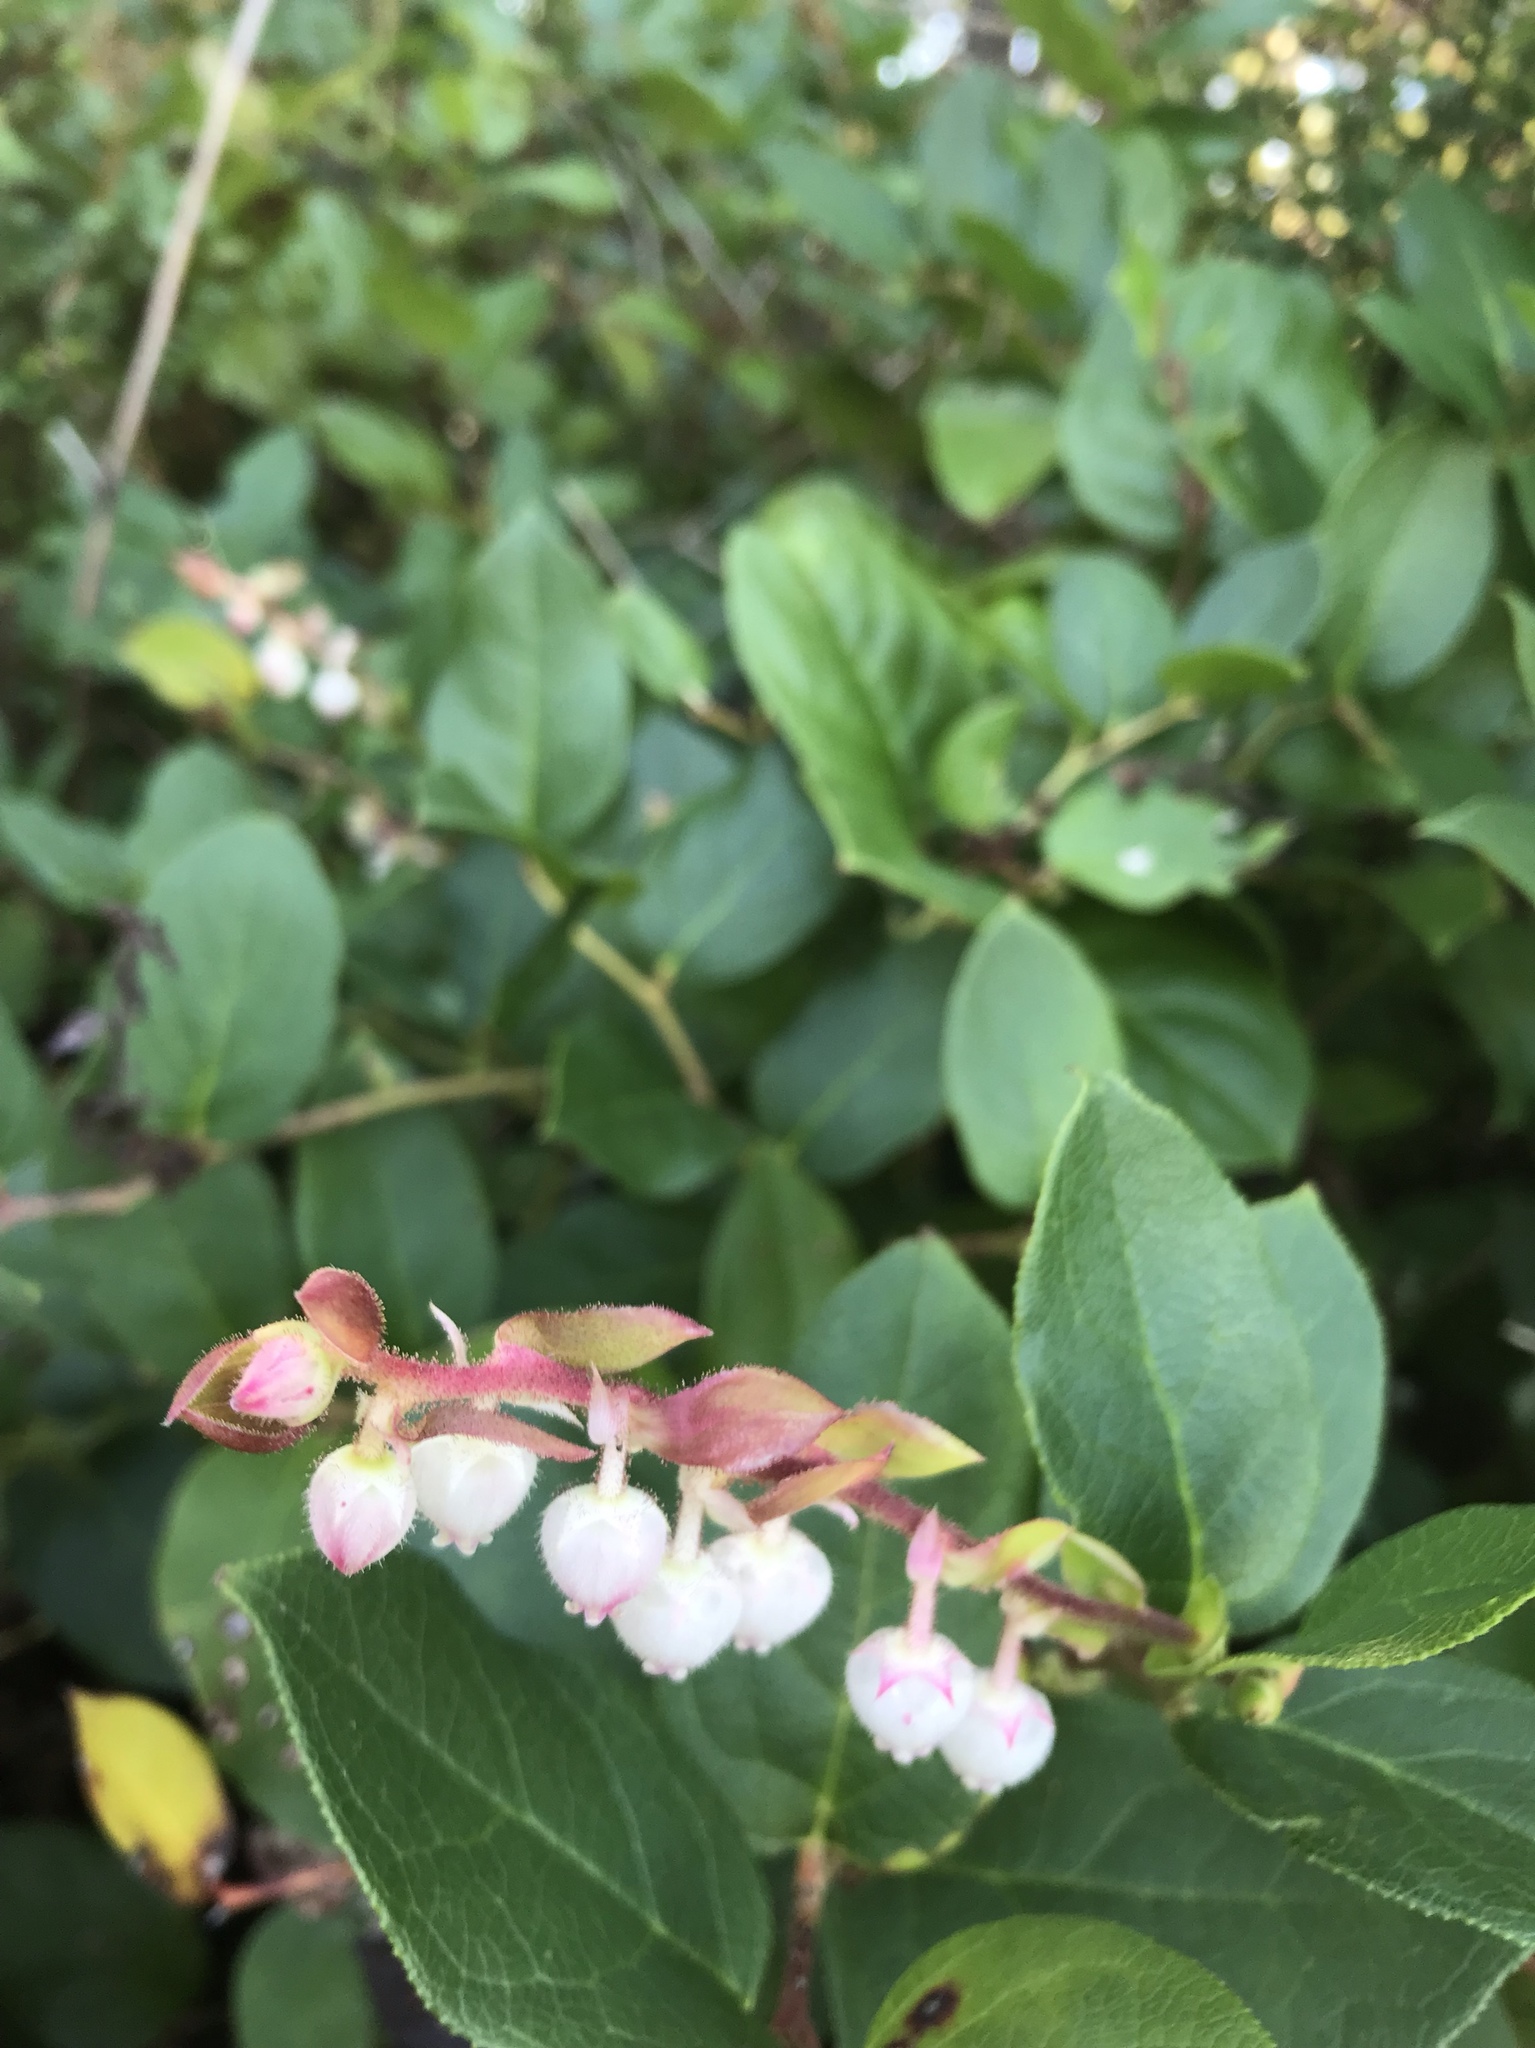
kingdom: Plantae
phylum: Tracheophyta
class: Magnoliopsida
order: Ericales
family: Ericaceae
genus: Gaultheria
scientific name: Gaultheria shallon
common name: Shallon
